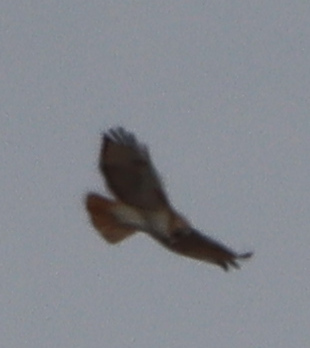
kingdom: Animalia
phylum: Chordata
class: Aves
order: Accipitriformes
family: Accipitridae
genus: Buteo
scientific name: Buteo jamaicensis
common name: Red-tailed hawk
